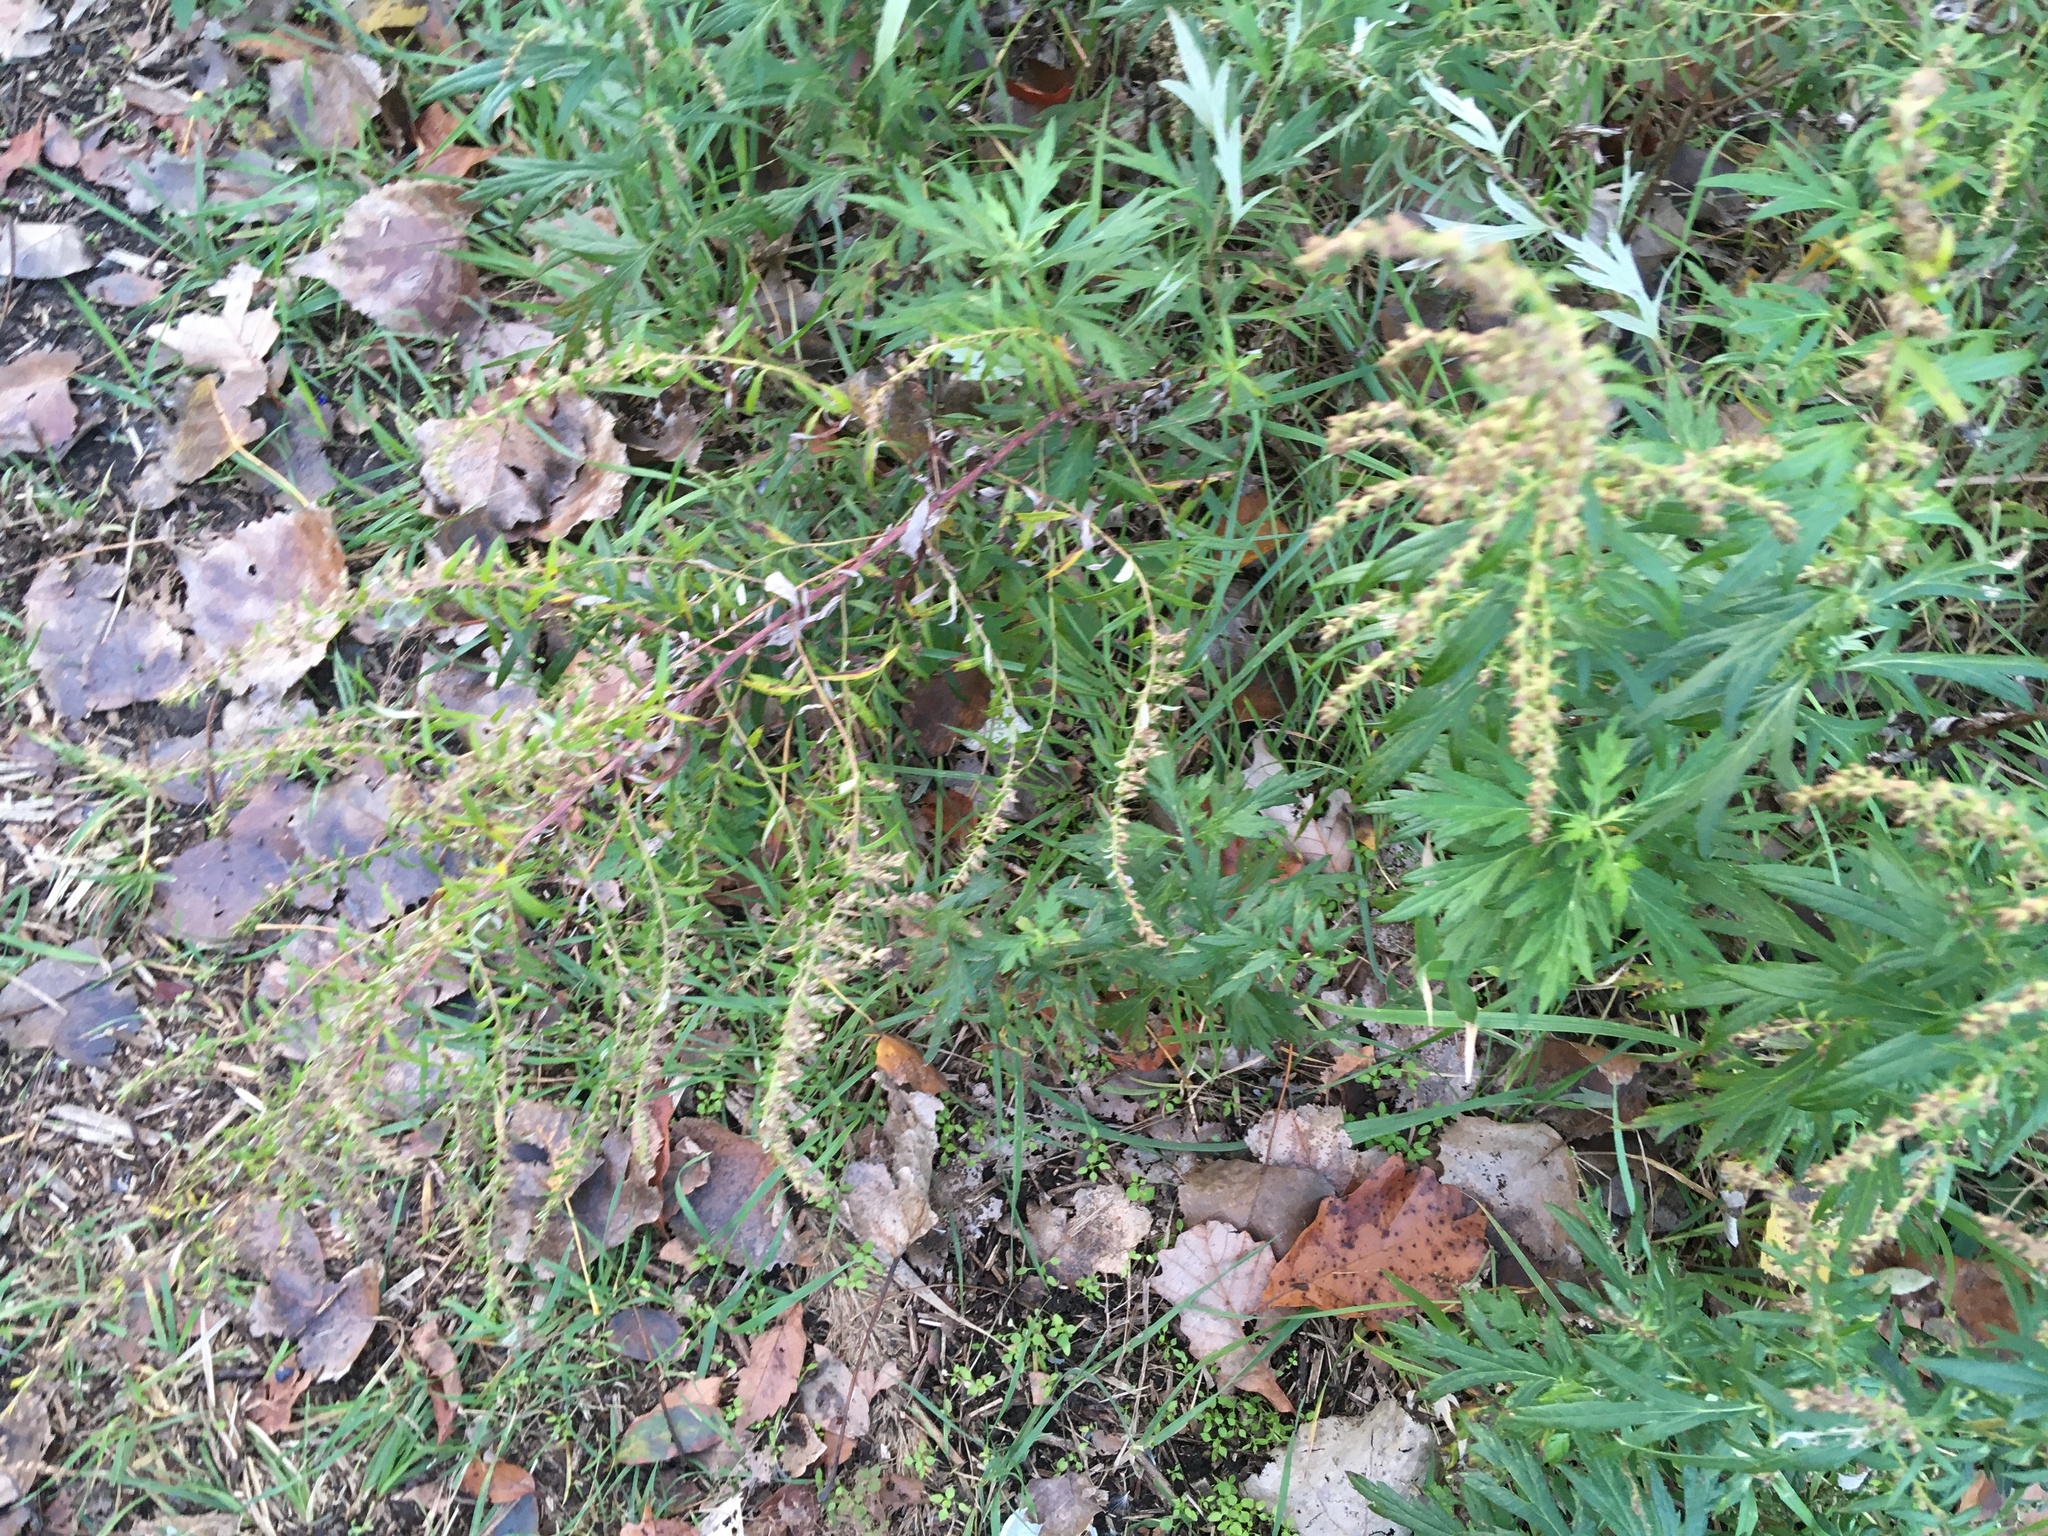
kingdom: Plantae
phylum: Tracheophyta
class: Magnoliopsida
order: Asterales
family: Asteraceae
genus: Artemisia
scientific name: Artemisia vulgaris
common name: Mugwort
